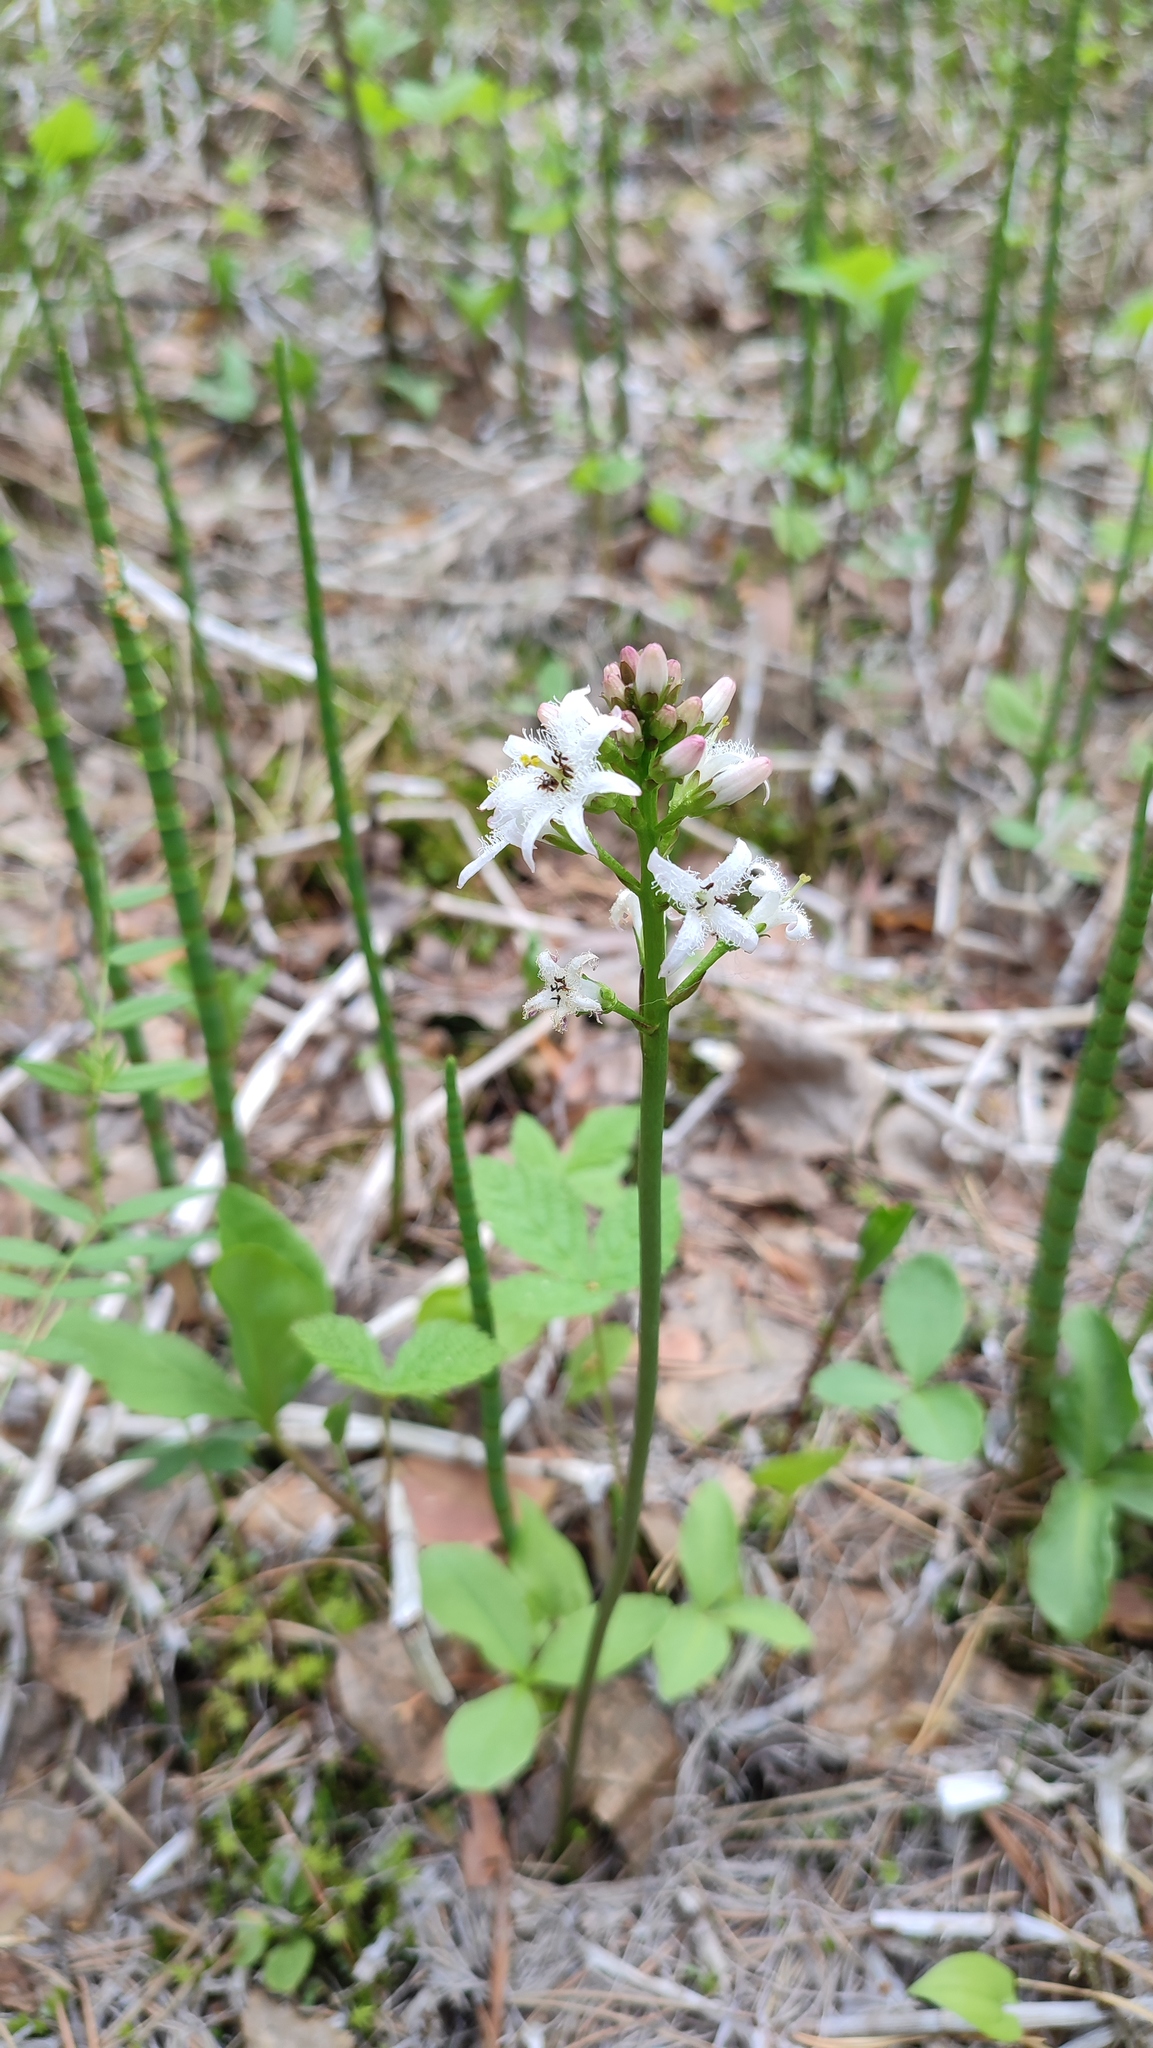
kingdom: Plantae
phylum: Tracheophyta
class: Magnoliopsida
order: Asterales
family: Menyanthaceae
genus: Menyanthes
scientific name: Menyanthes trifoliata
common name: Bogbean
